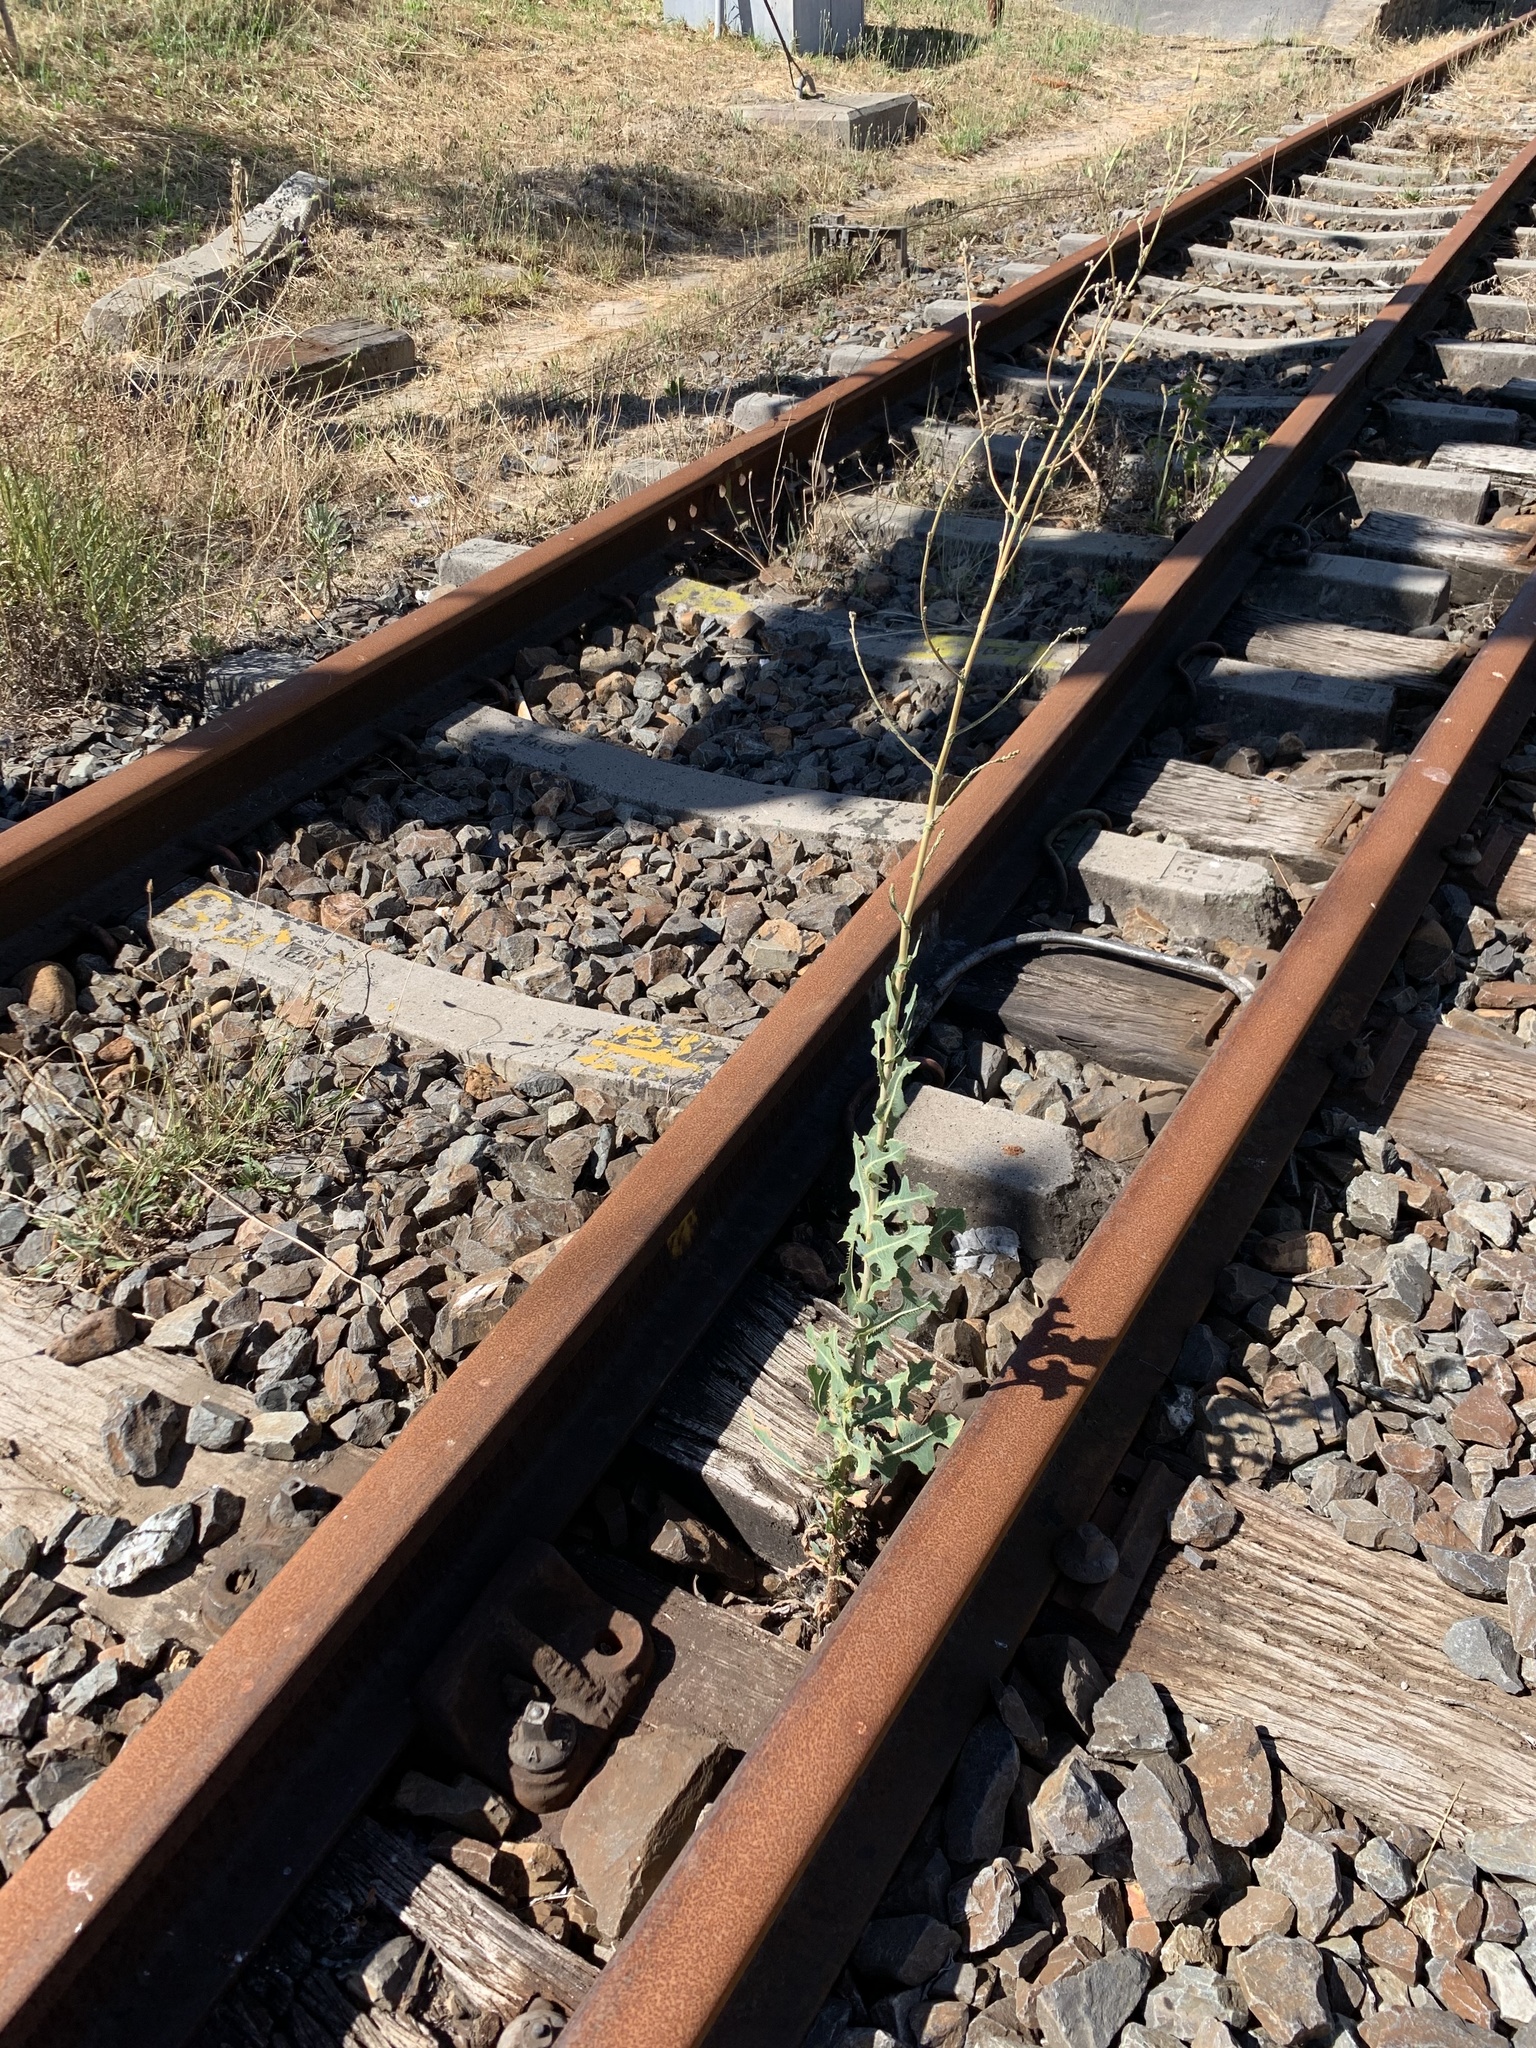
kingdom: Plantae
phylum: Tracheophyta
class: Magnoliopsida
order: Asterales
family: Asteraceae
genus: Lactuca
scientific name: Lactuca serriola
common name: Prickly lettuce
